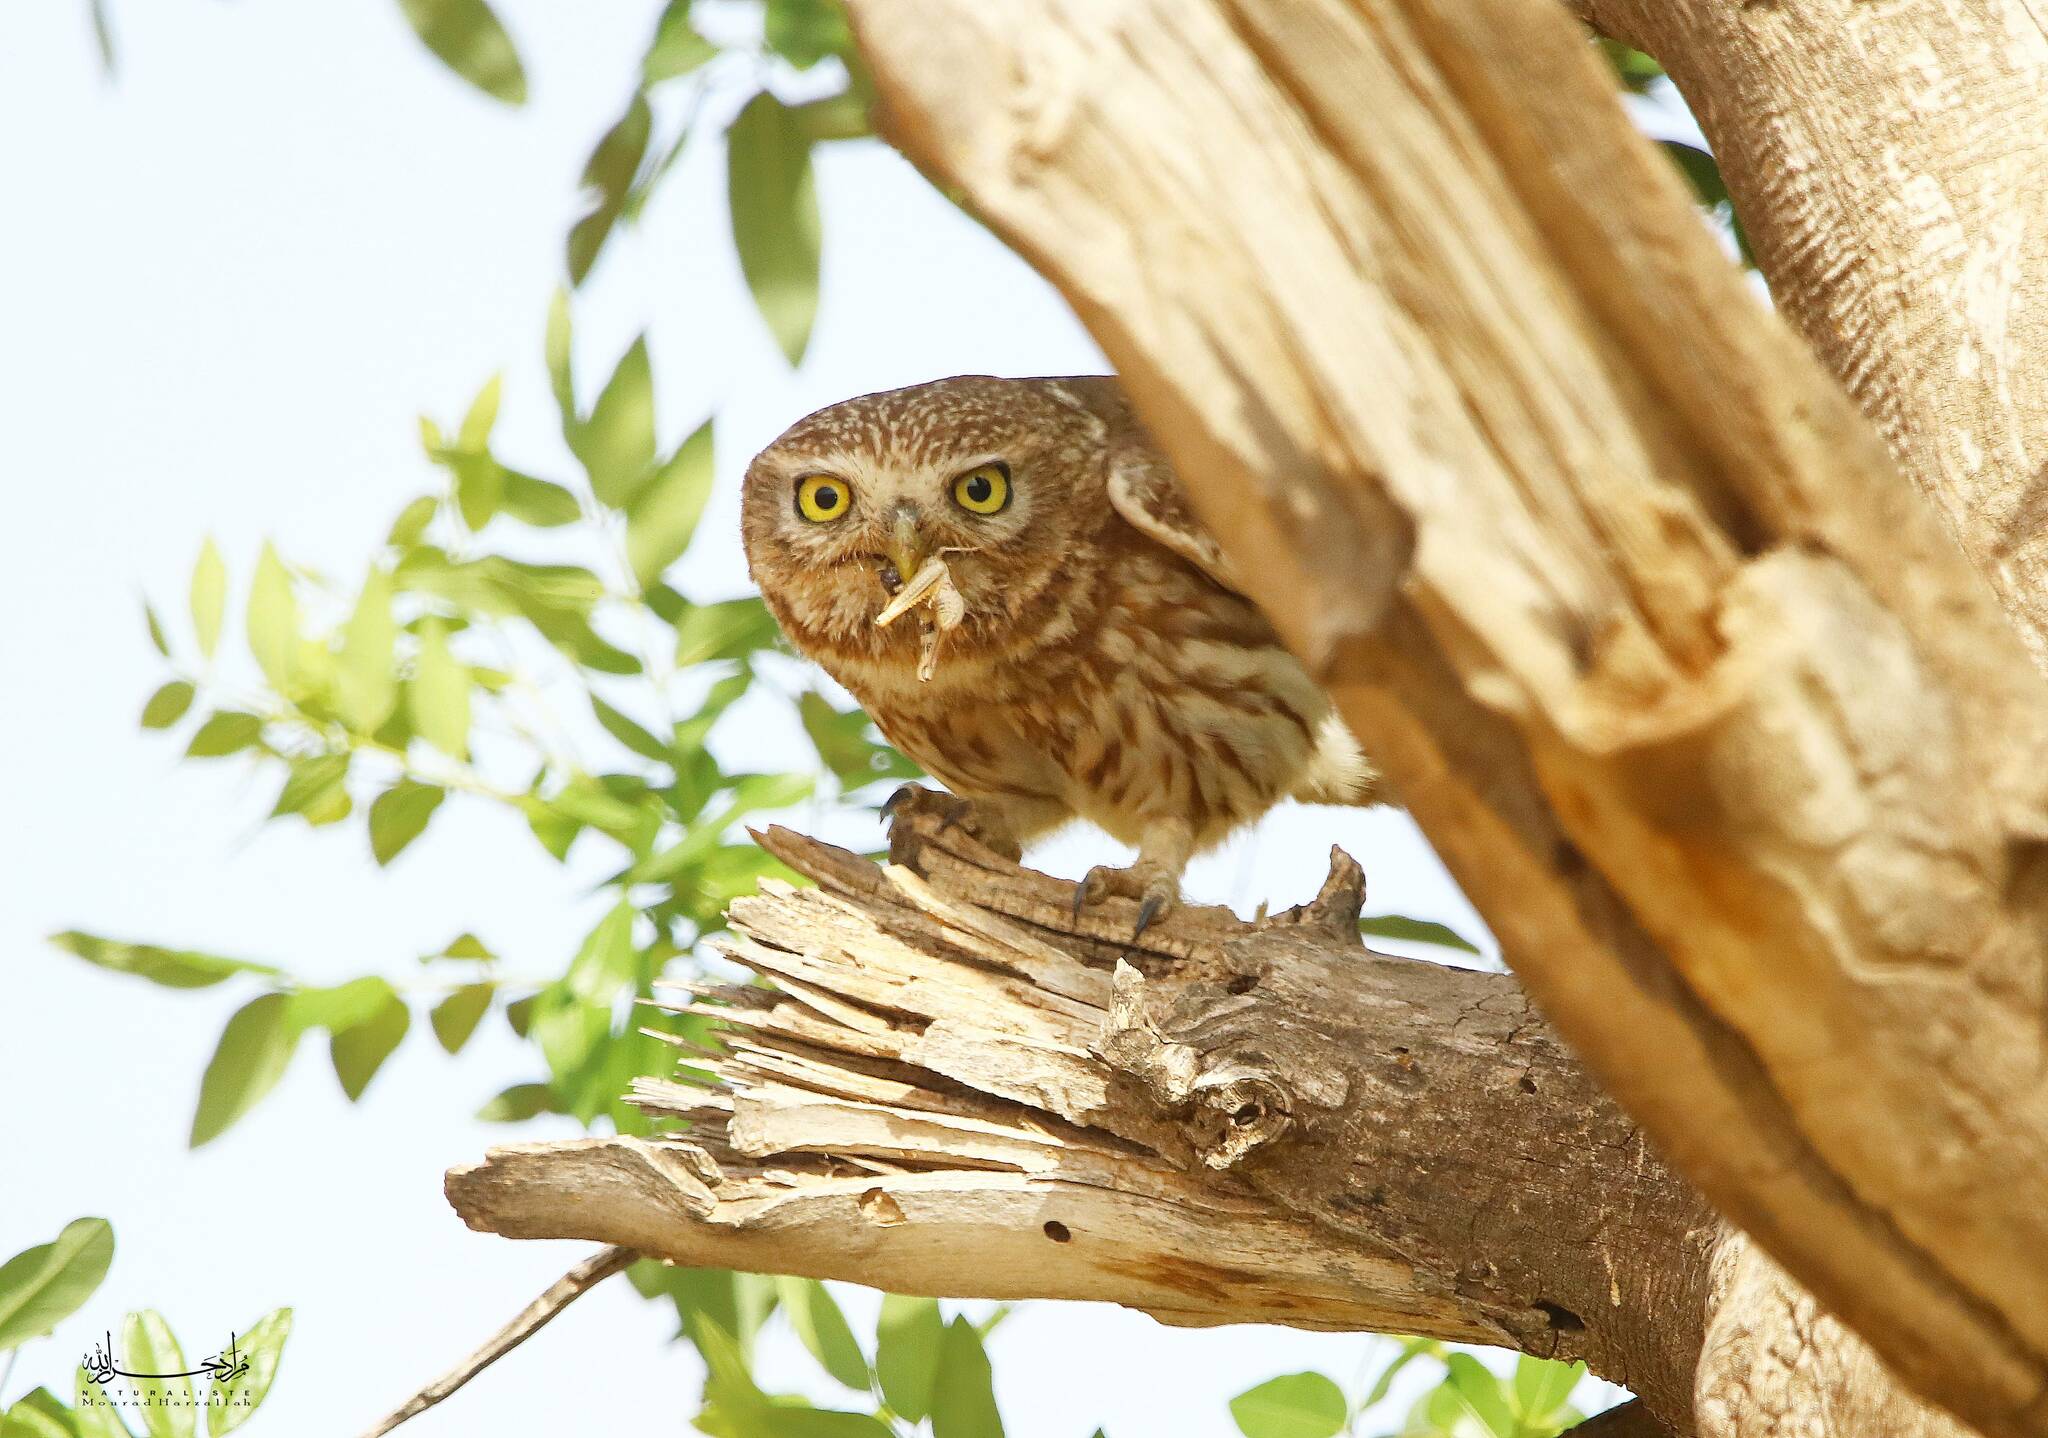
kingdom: Animalia
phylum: Chordata
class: Aves
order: Strigiformes
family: Strigidae
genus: Athene
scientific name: Athene noctua
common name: Little owl
